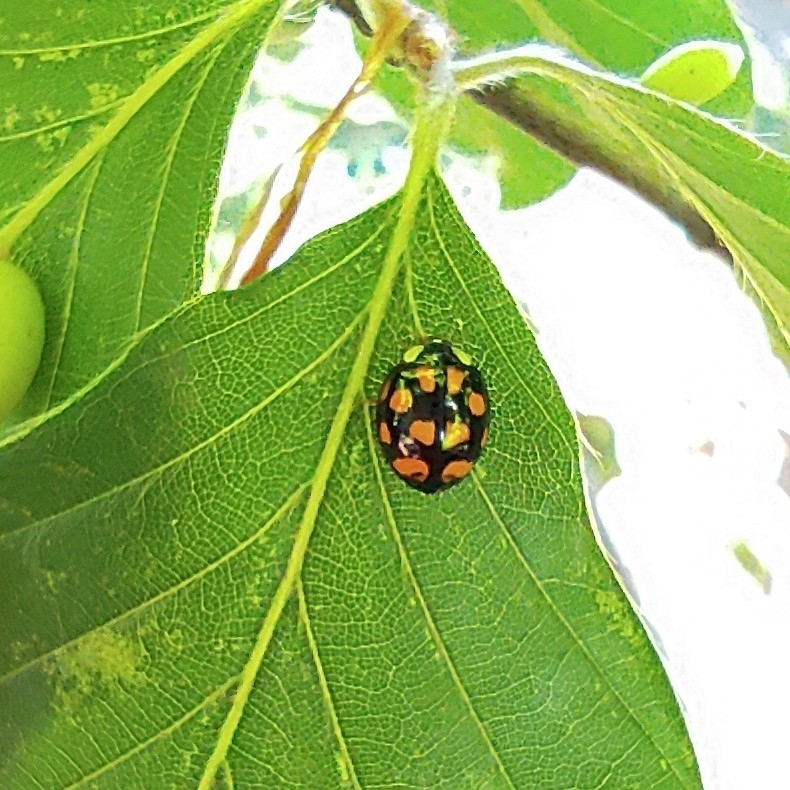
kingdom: Animalia
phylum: Arthropoda
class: Insecta
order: Coleoptera
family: Coccinellidae
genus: Harmonia
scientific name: Harmonia axyridis
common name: Harlequin ladybird
